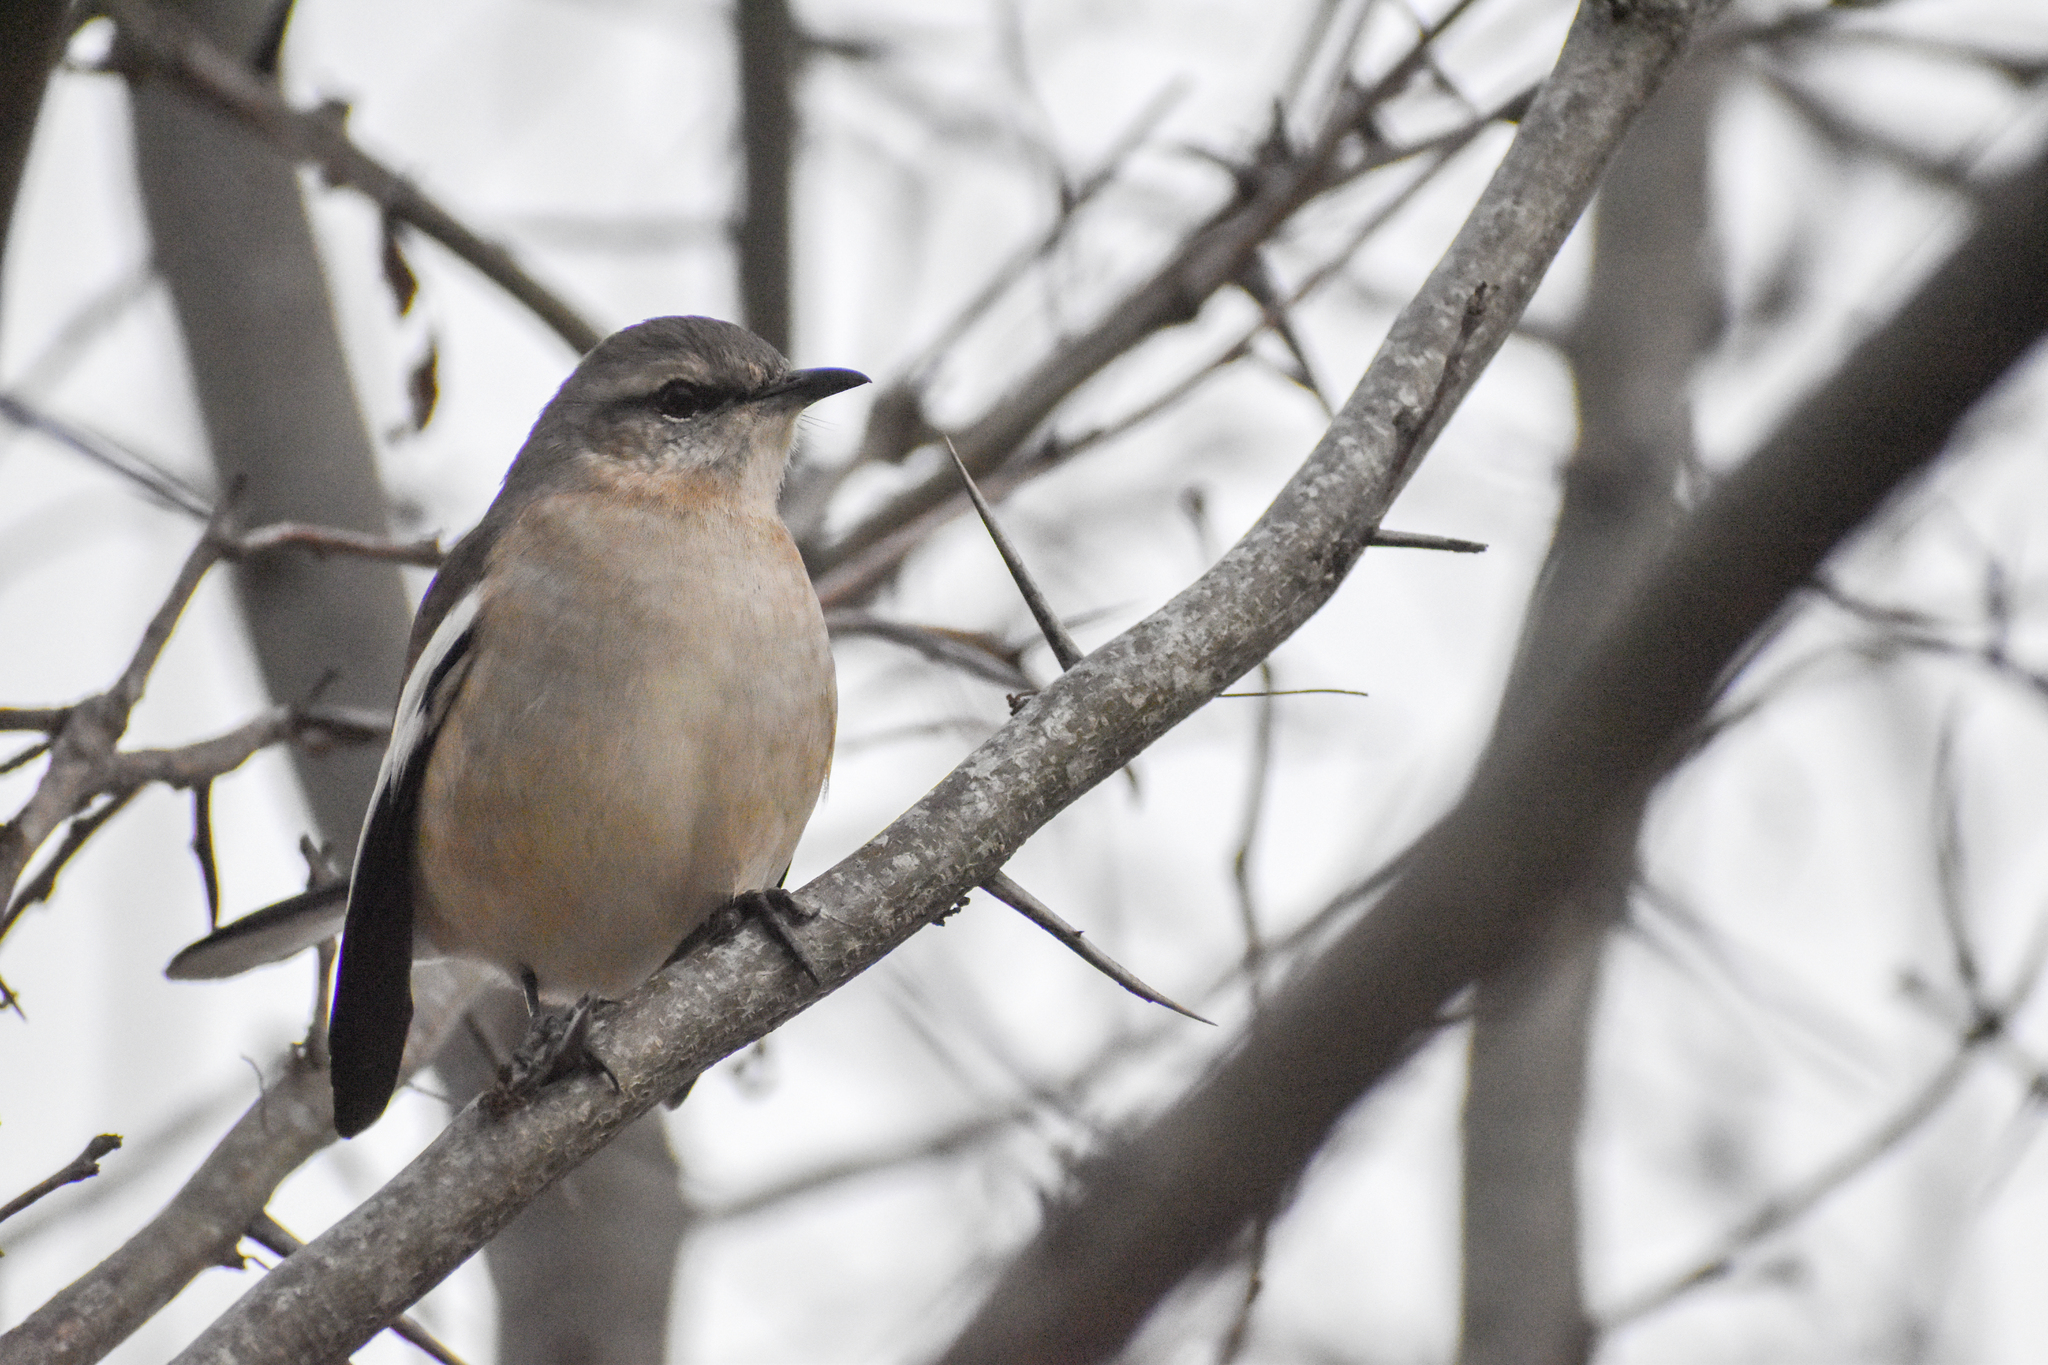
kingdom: Animalia
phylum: Chordata
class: Aves
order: Passeriformes
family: Mimidae
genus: Mimus
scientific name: Mimus triurus
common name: White-banded mockingbird
